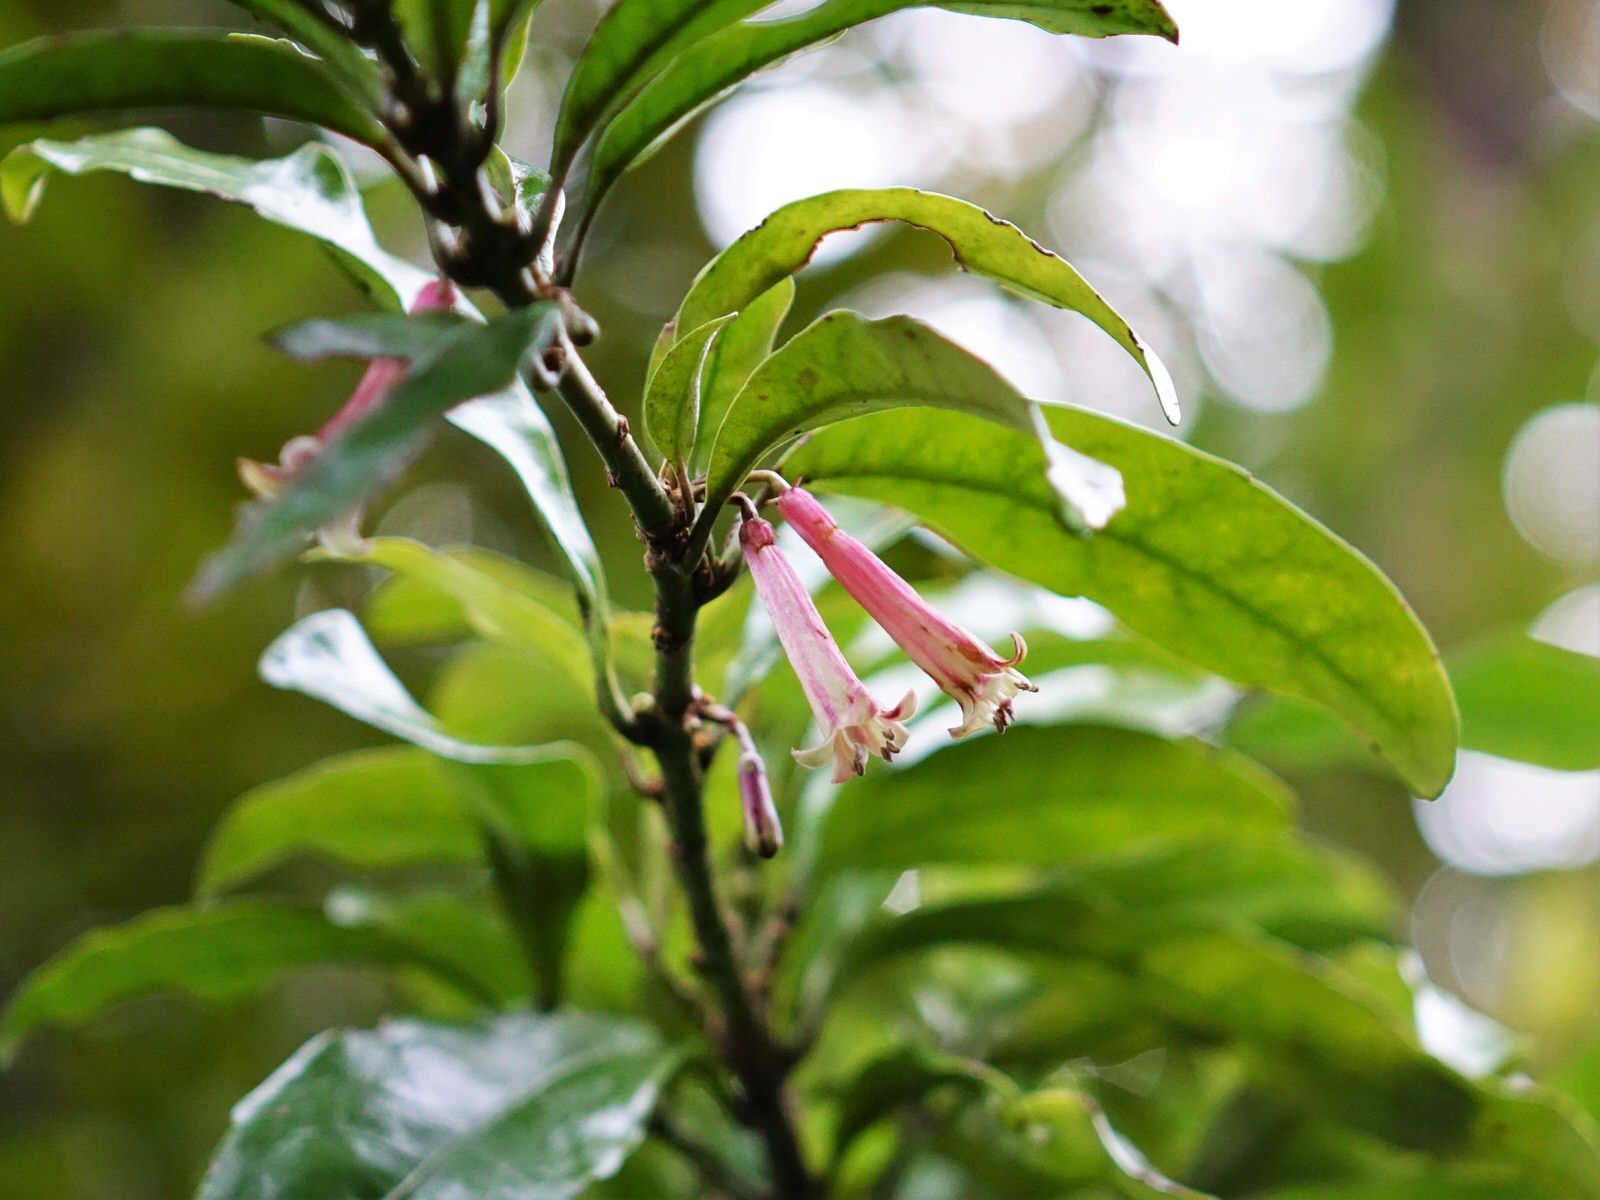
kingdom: Plantae
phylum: Tracheophyta
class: Magnoliopsida
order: Asterales
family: Alseuosmiaceae
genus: Alseuosmia
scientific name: Alseuosmia macrophylla
